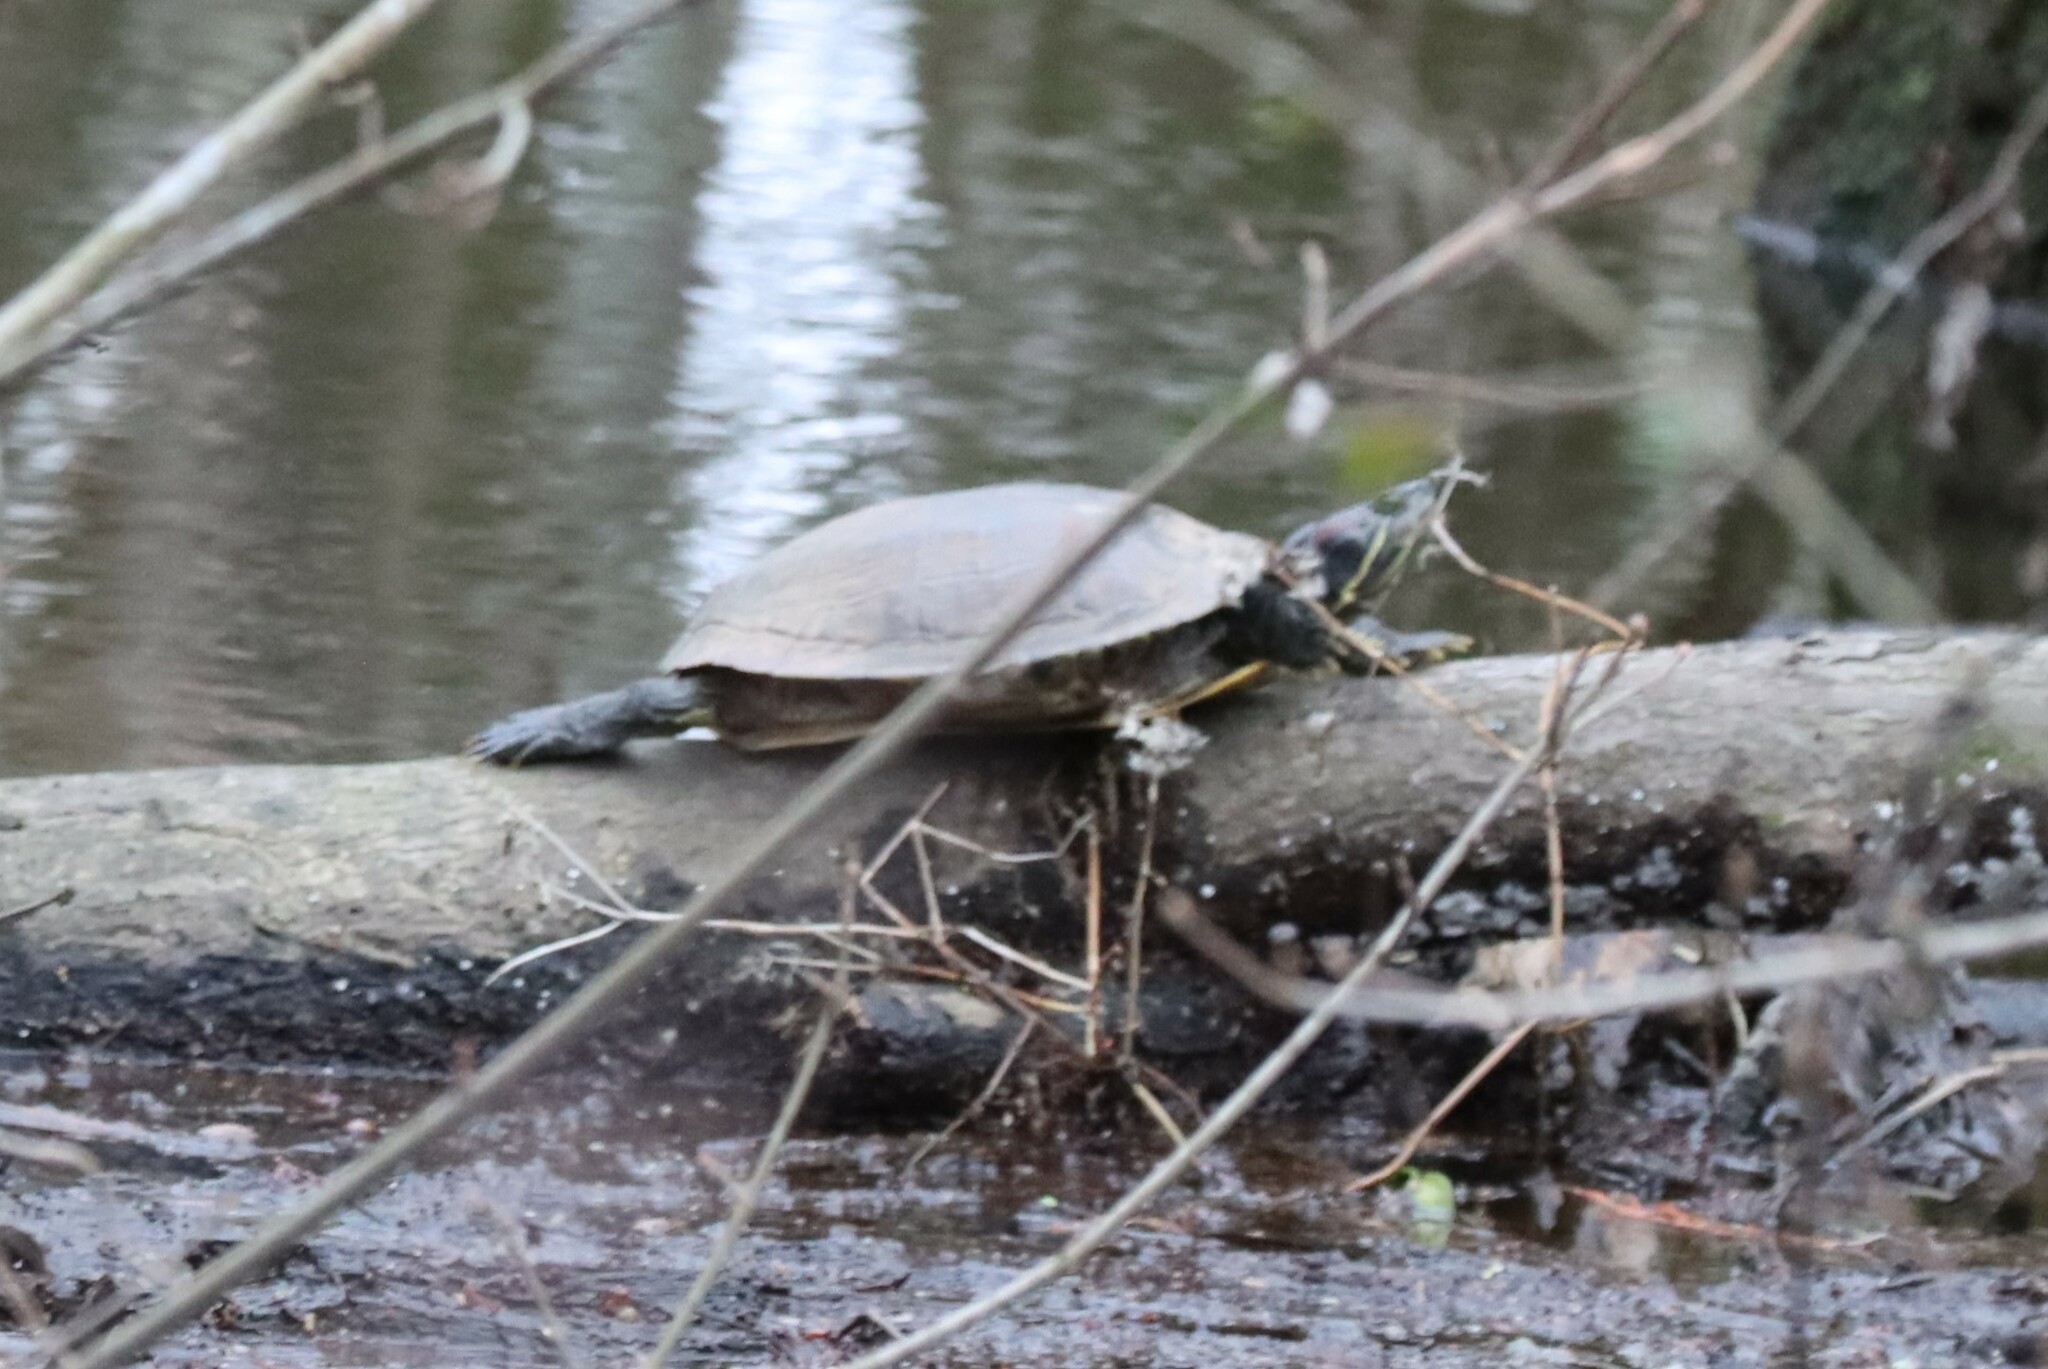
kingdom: Animalia
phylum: Chordata
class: Testudines
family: Emydidae
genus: Trachemys
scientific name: Trachemys scripta
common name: Slider
